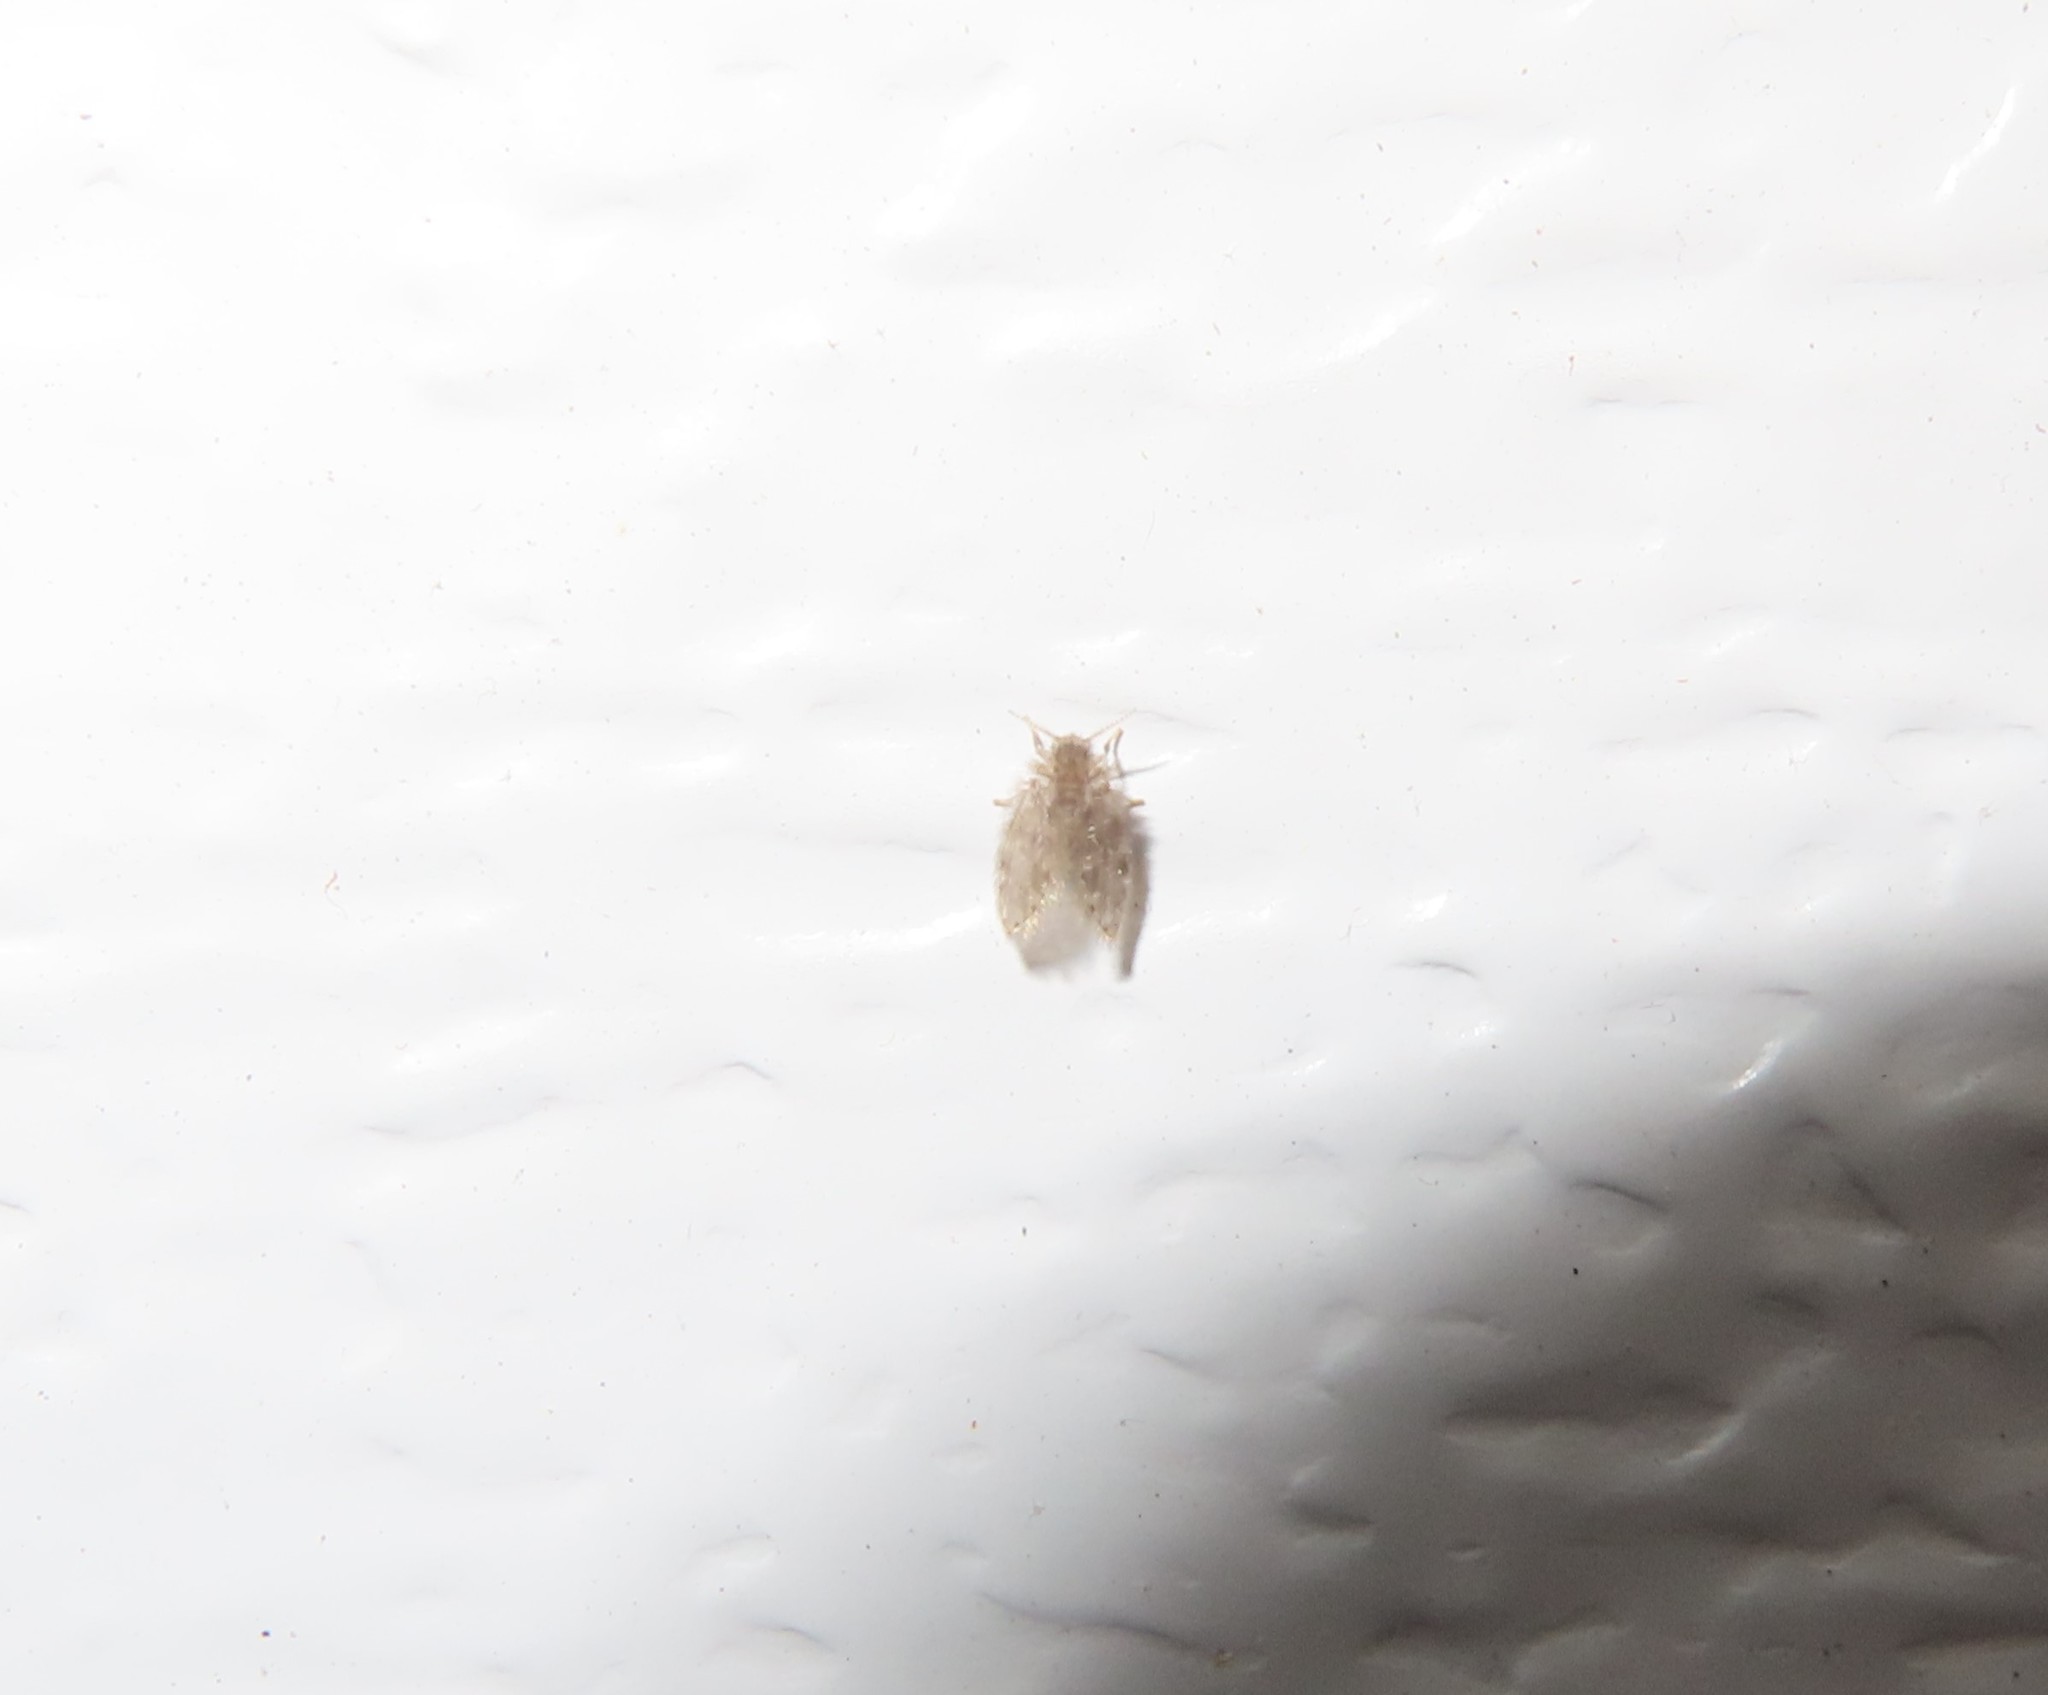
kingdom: Animalia
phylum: Arthropoda
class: Insecta
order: Diptera
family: Psychodidae
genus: Psychoda
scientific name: Psychoda alternata
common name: Moth fly
